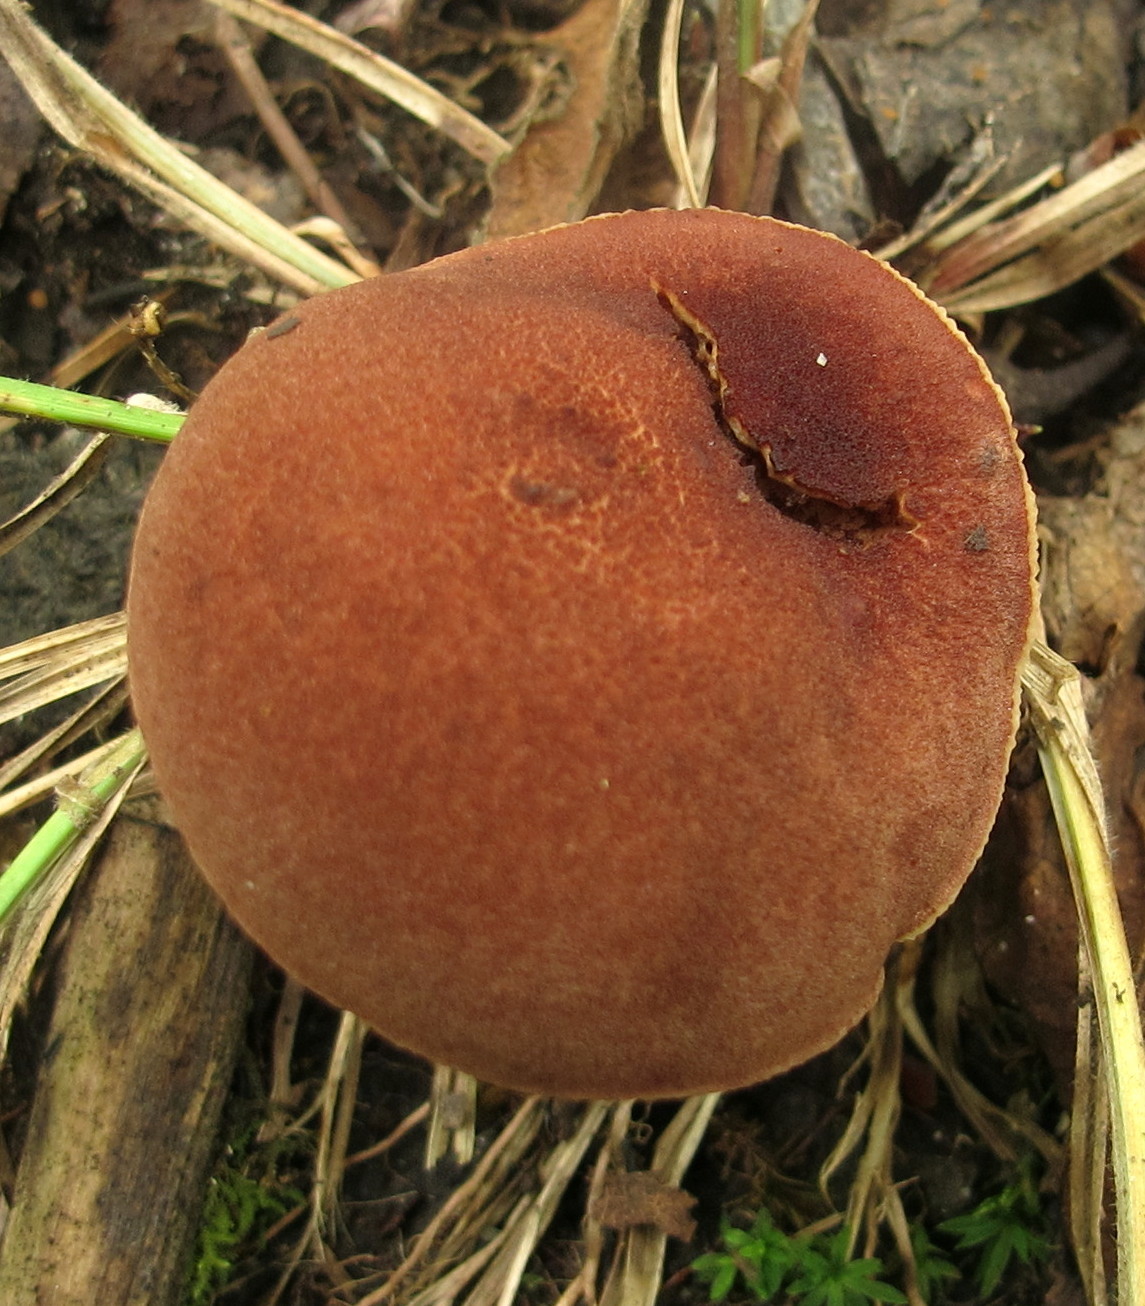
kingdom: Fungi
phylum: Basidiomycota
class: Agaricomycetes
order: Boletales
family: Boletaceae
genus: Bothia
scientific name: Bothia castanella
